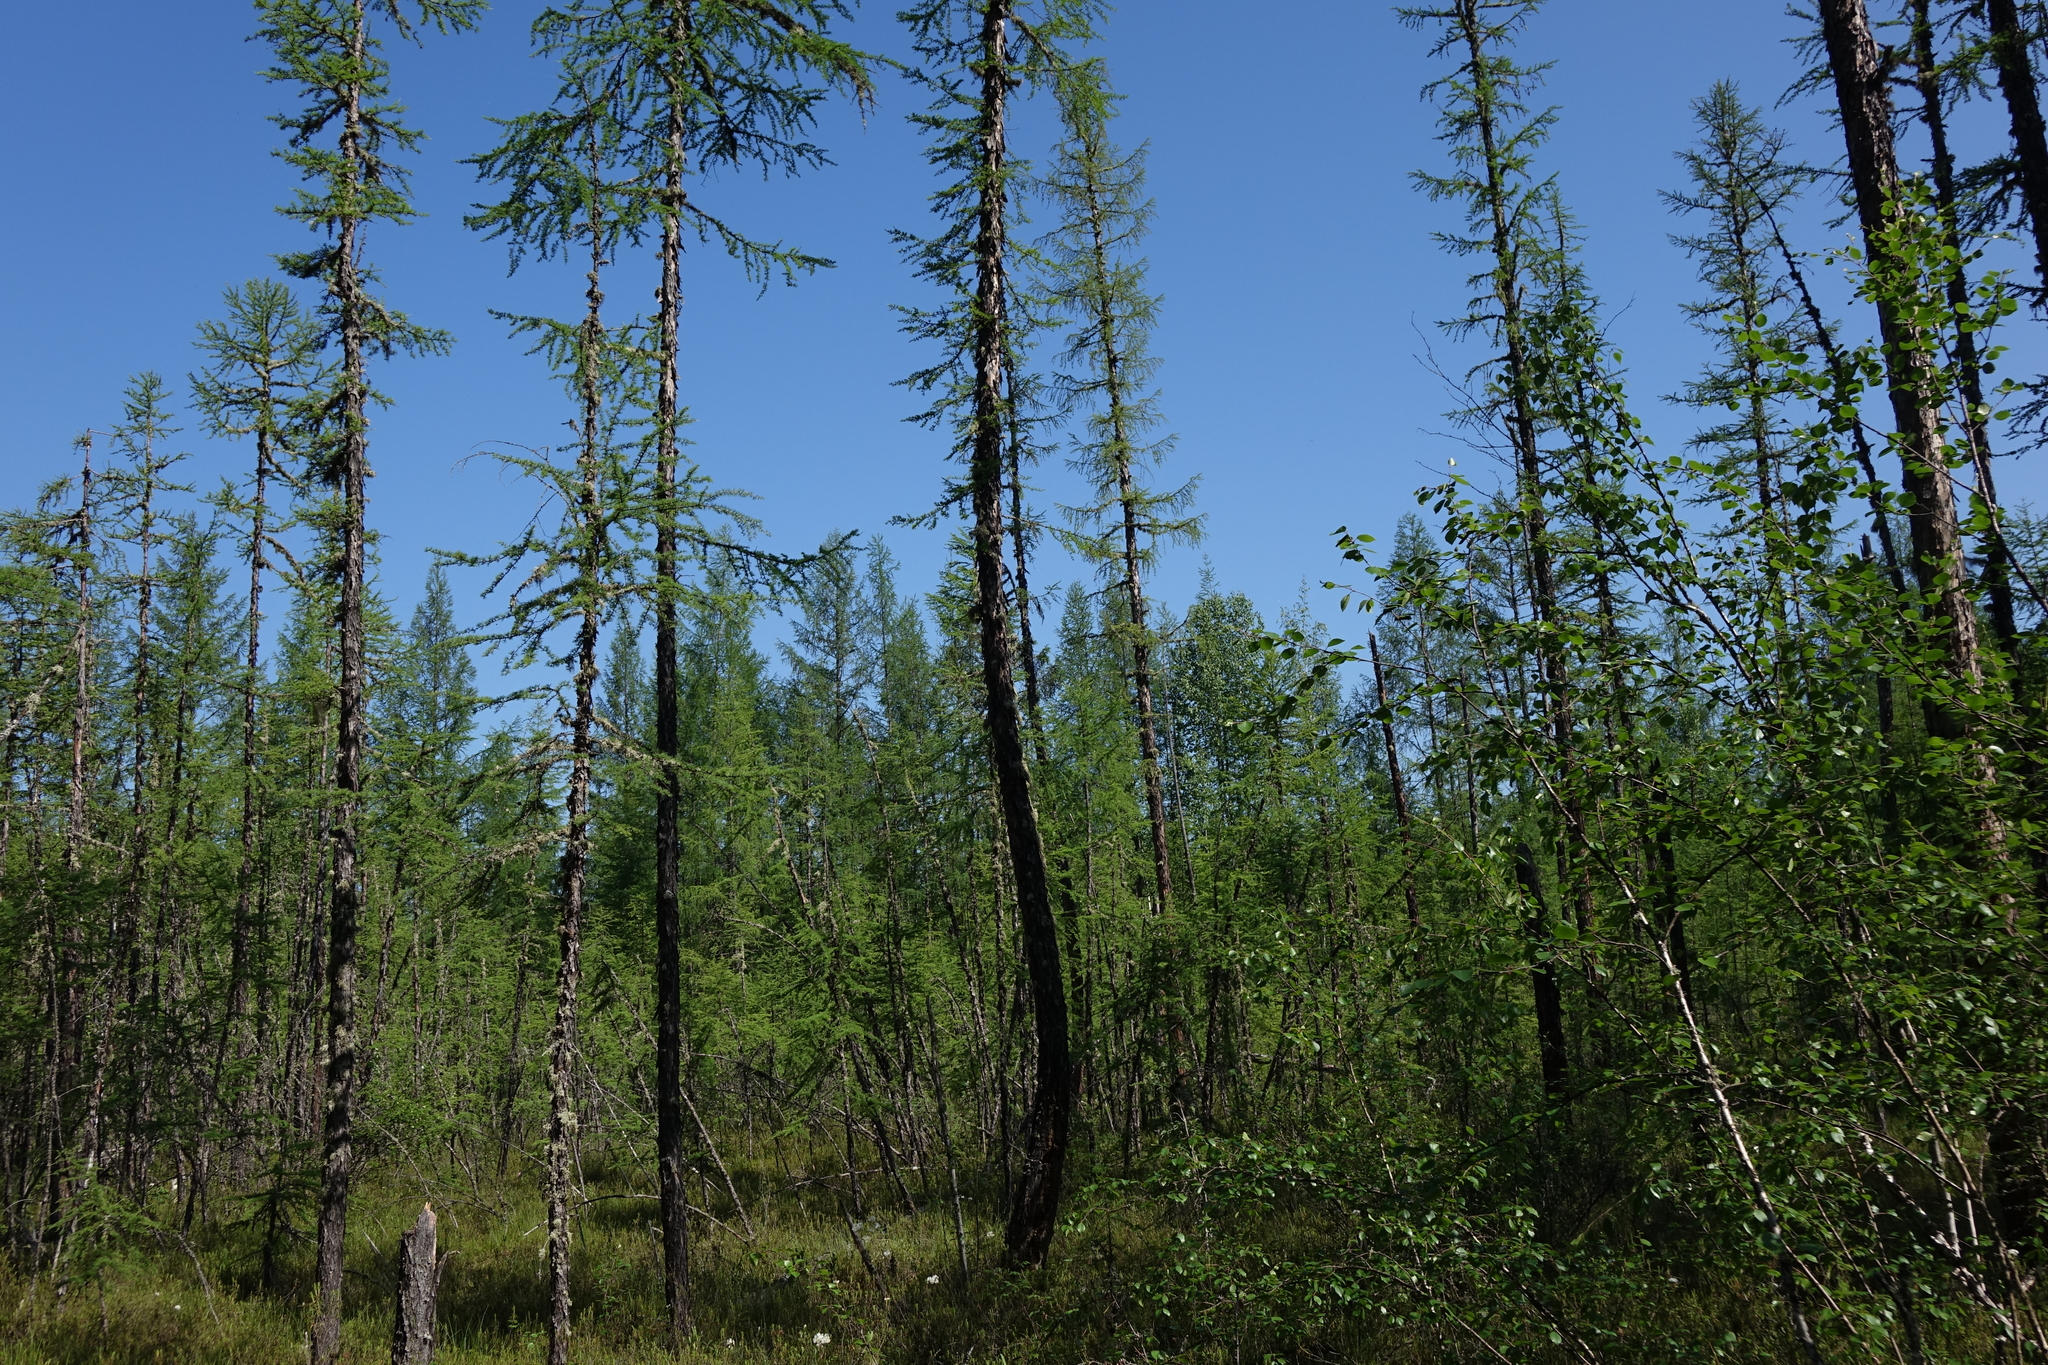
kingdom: Plantae
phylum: Tracheophyta
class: Pinopsida
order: Pinales
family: Pinaceae
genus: Larix
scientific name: Larix gmelinii
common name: Dahurian larch
